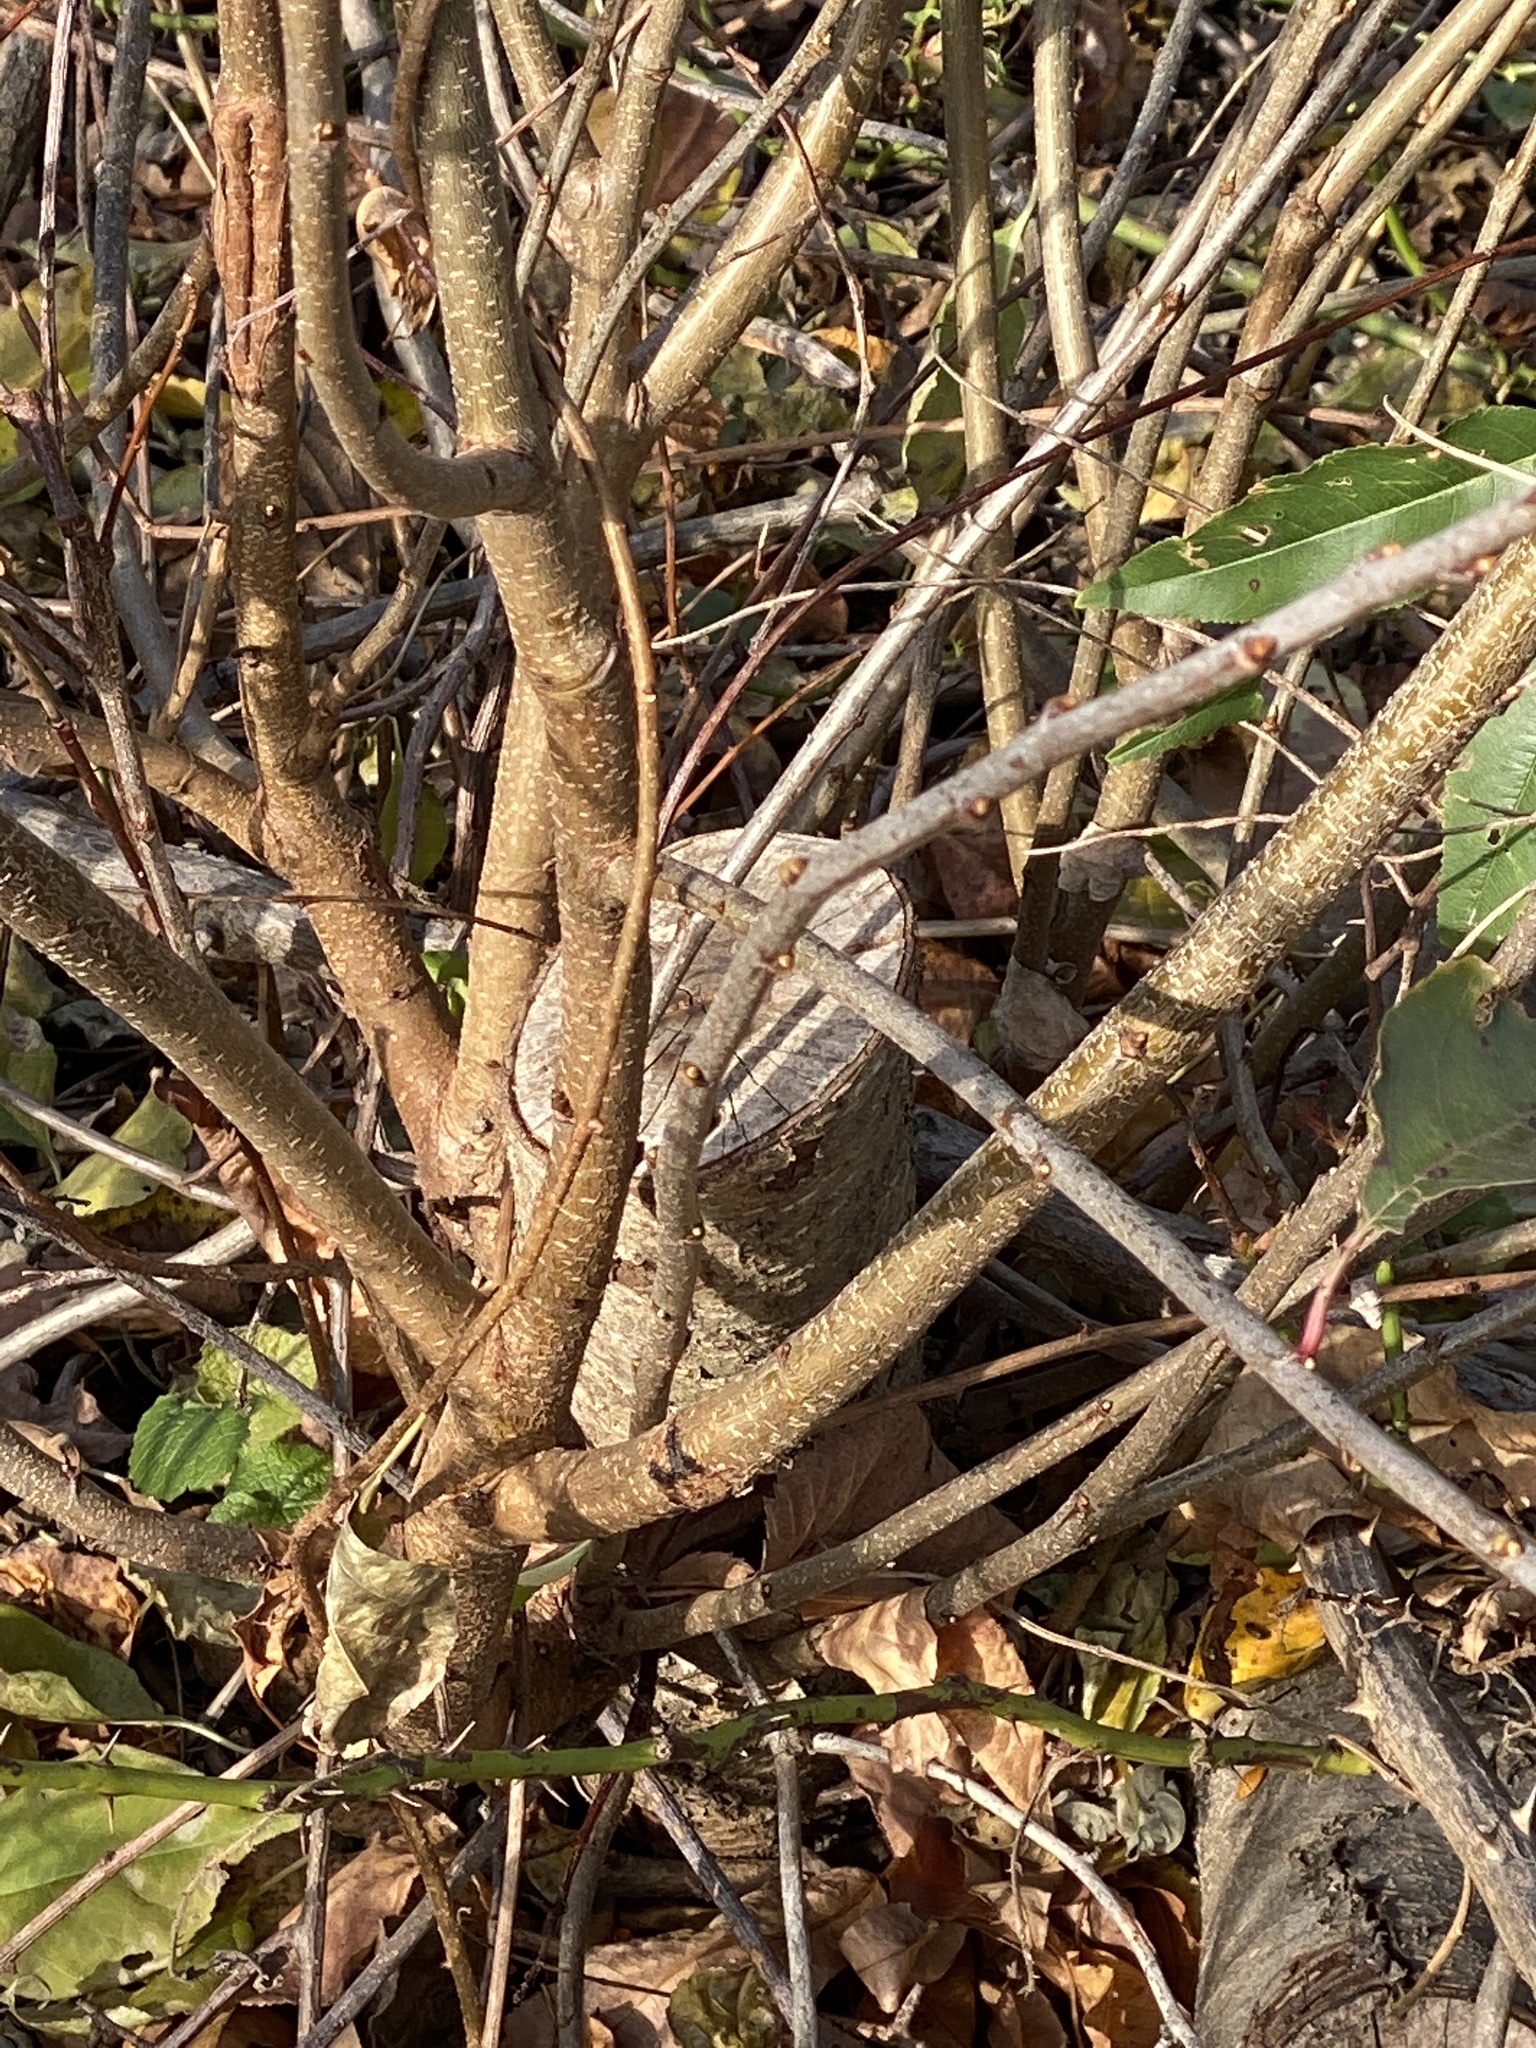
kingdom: Plantae
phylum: Tracheophyta
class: Magnoliopsida
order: Rosales
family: Rosaceae
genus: Prunus
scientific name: Prunus serotina
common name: Black cherry
